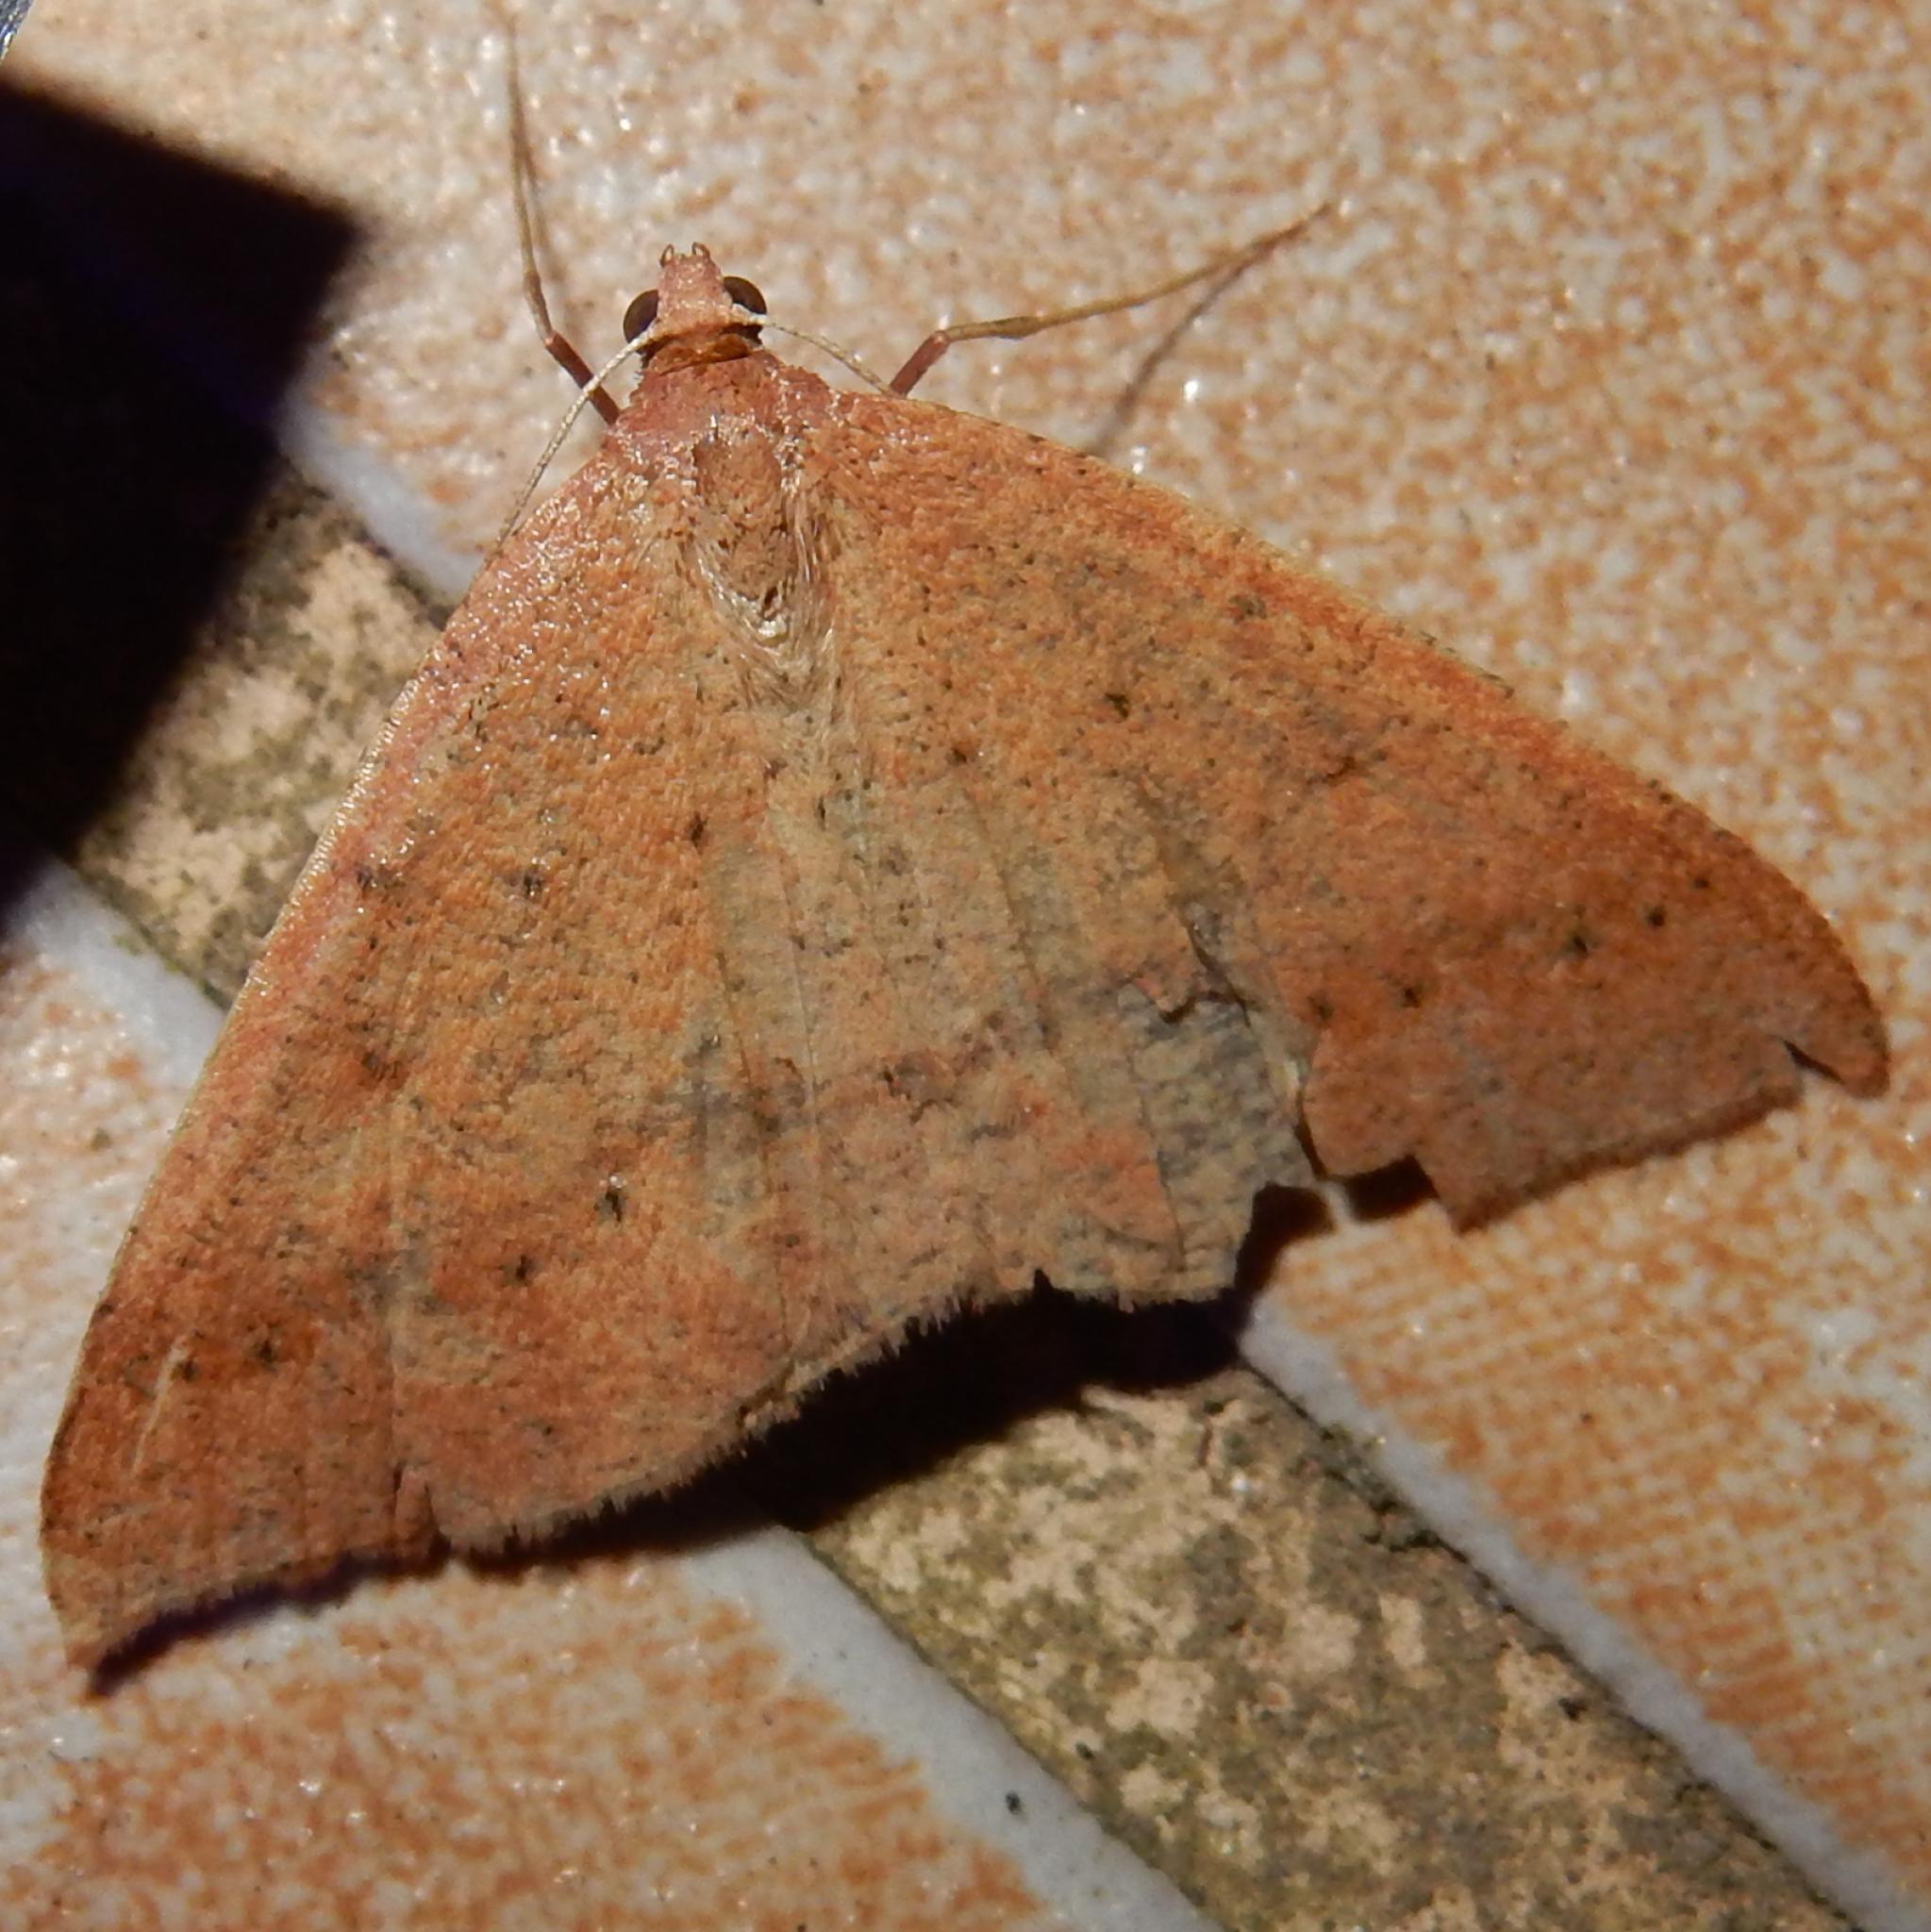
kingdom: Animalia
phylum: Arthropoda
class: Insecta
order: Lepidoptera
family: Geometridae
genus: Palaeaspilates
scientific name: Palaeaspilates inoffensa
